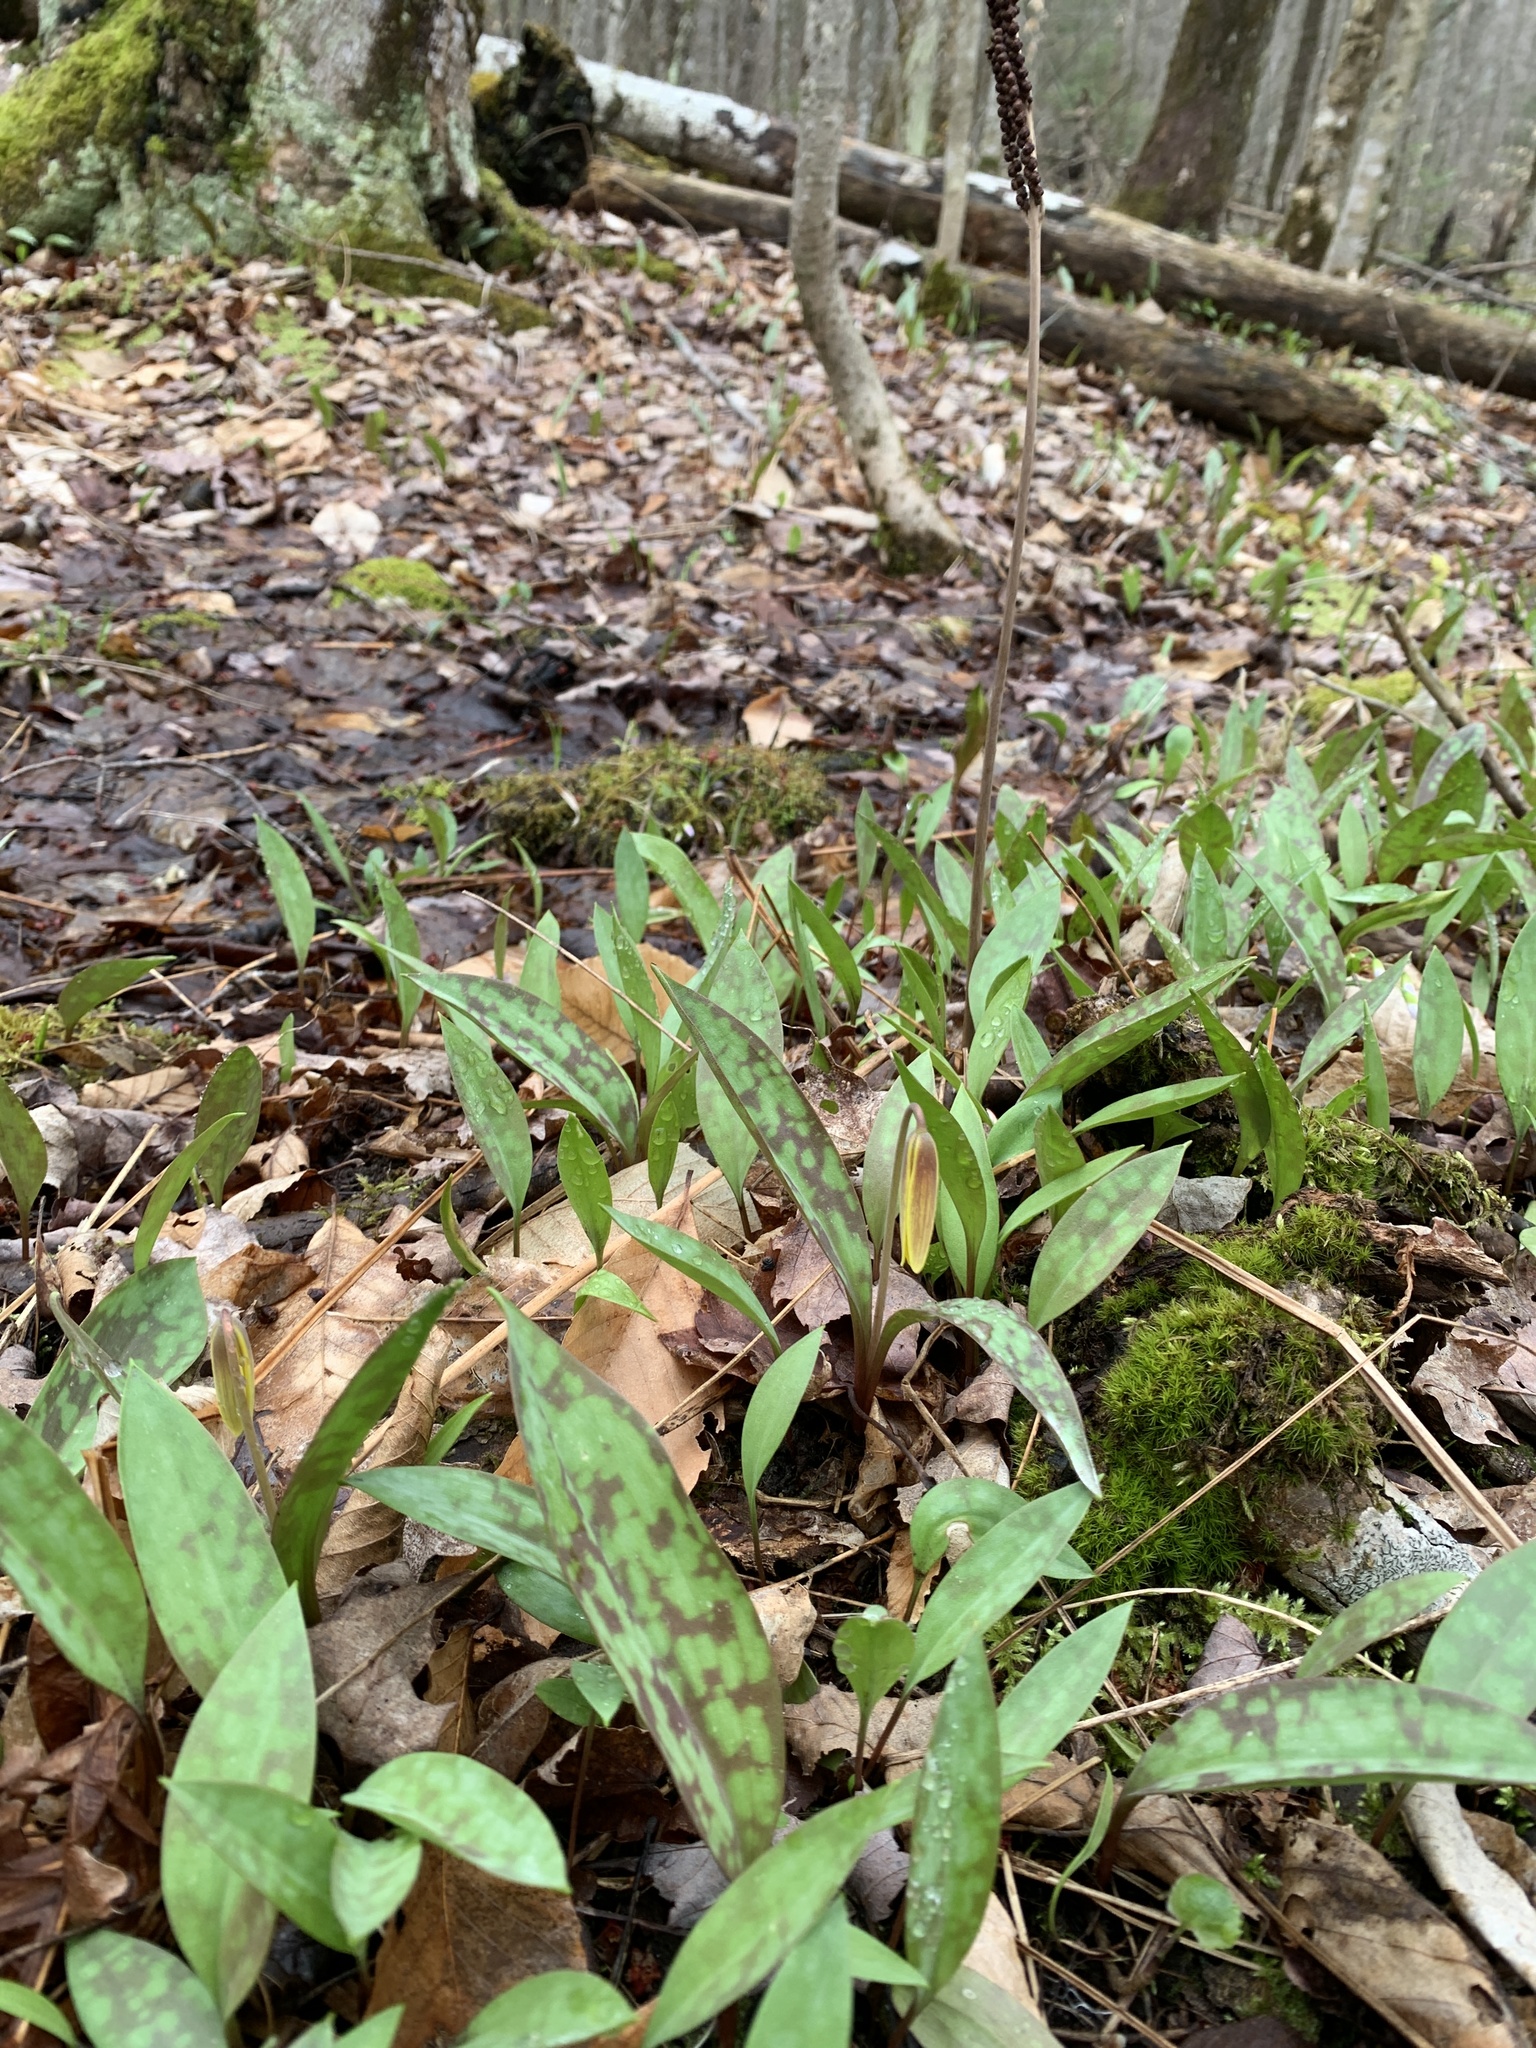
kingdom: Plantae
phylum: Tracheophyta
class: Liliopsida
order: Liliales
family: Liliaceae
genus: Erythronium
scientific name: Erythronium americanum
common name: Yellow adder's-tongue
